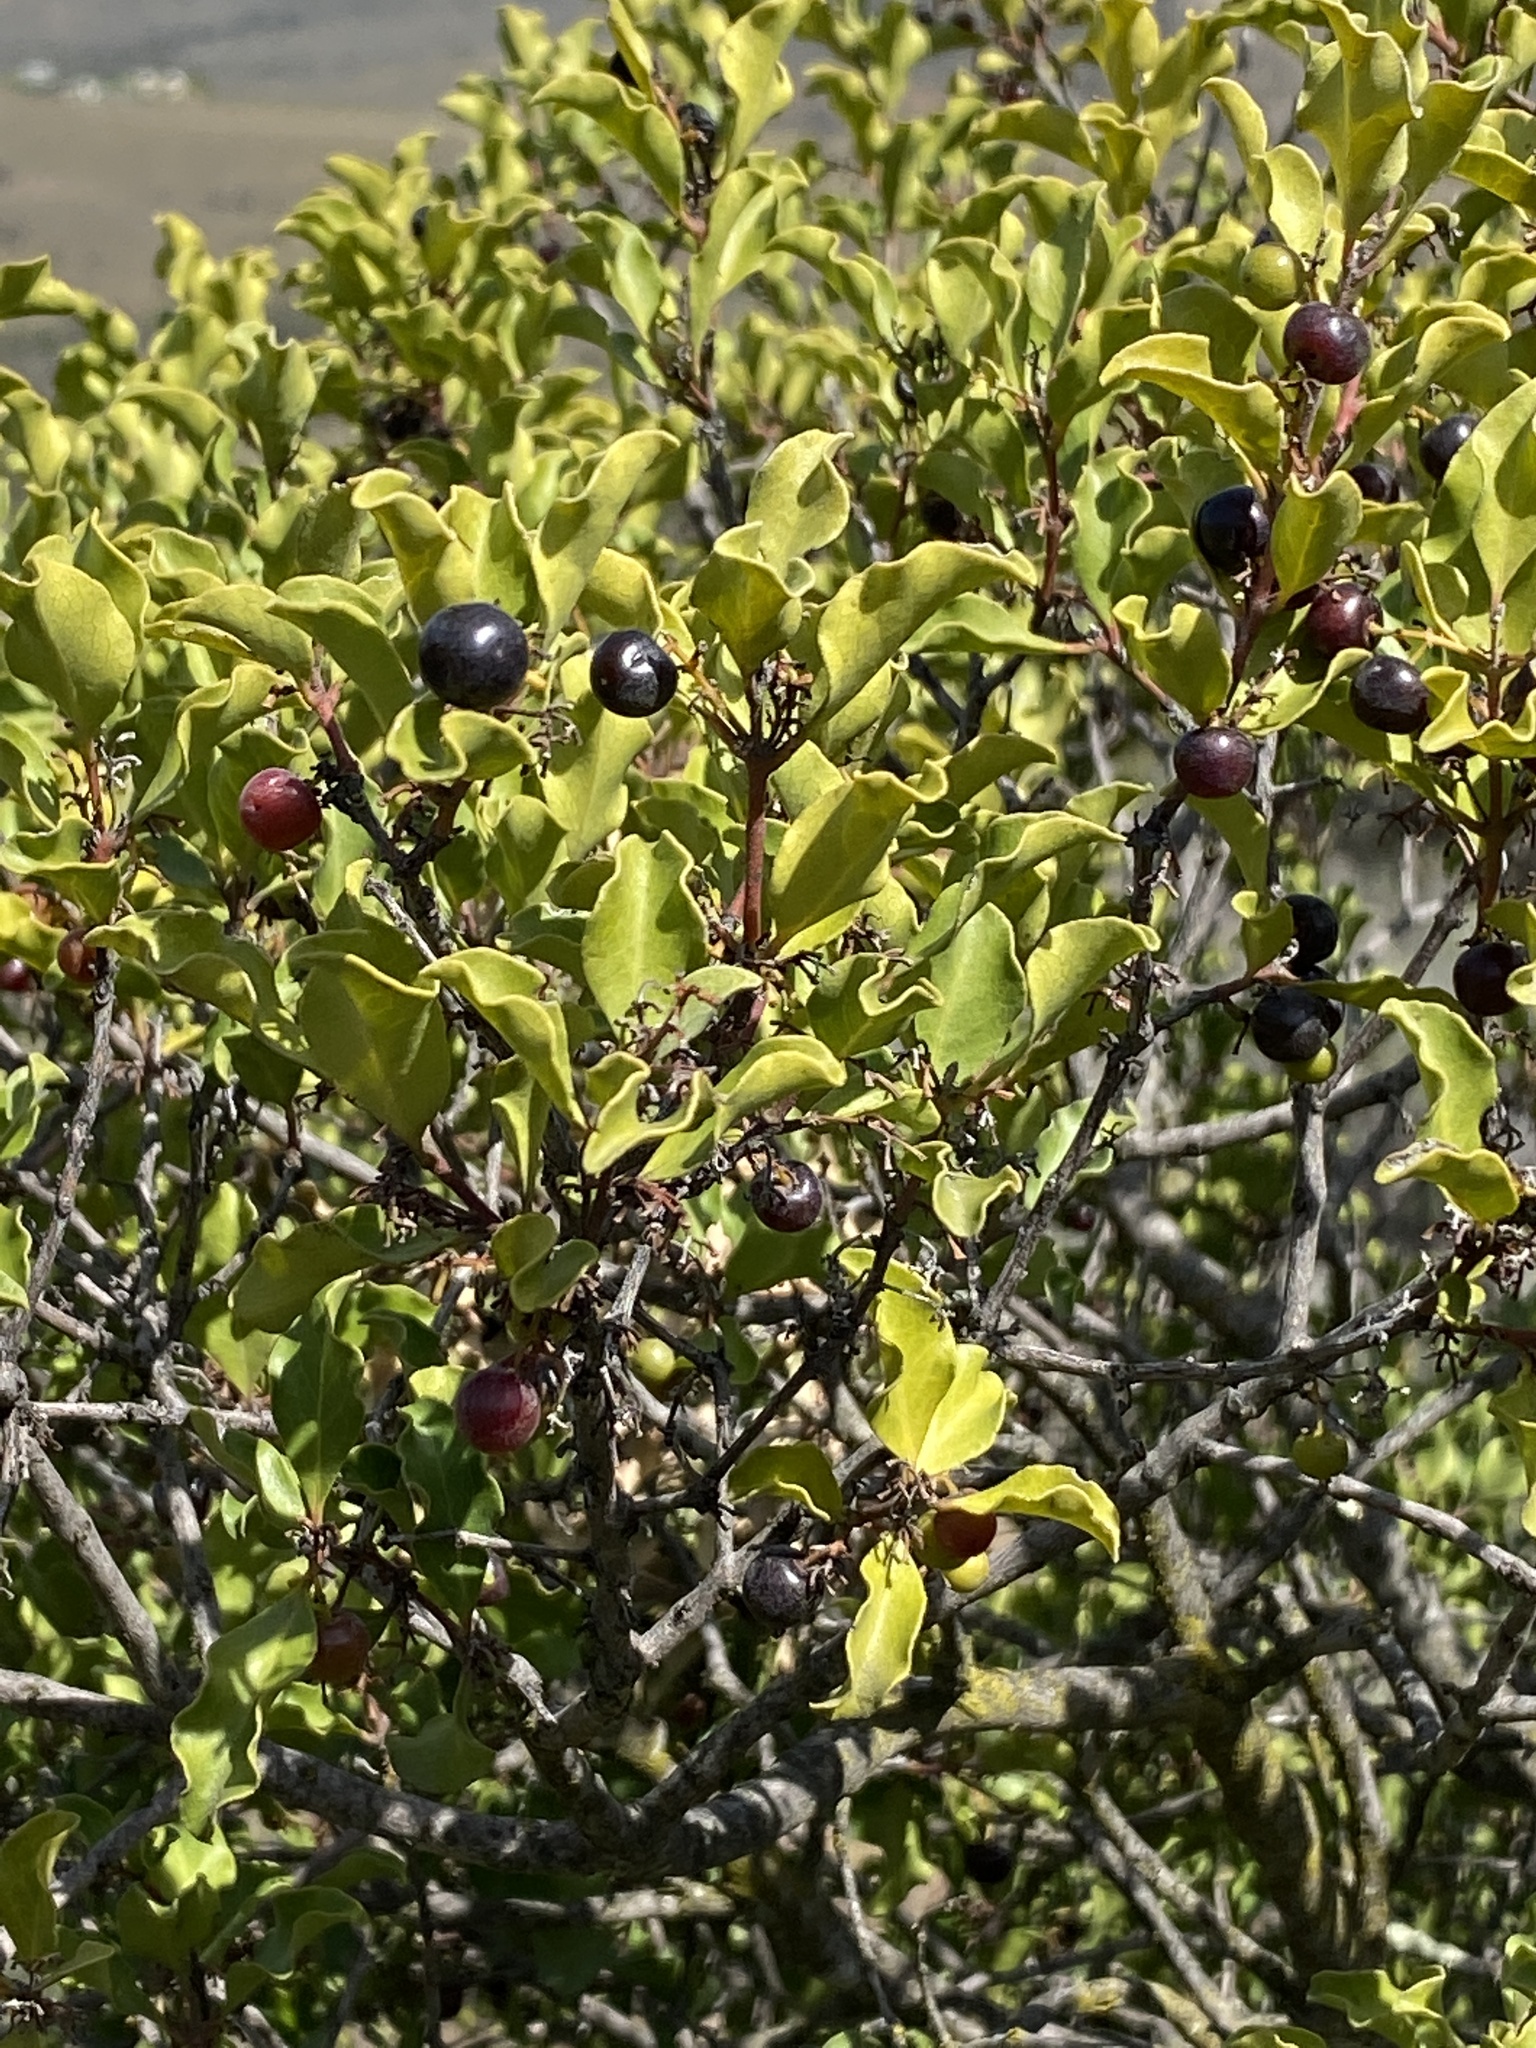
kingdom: Plantae
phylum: Tracheophyta
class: Magnoliopsida
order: Ericales
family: Ebenaceae
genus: Euclea
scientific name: Euclea undulata
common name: Small-leaved guarri
